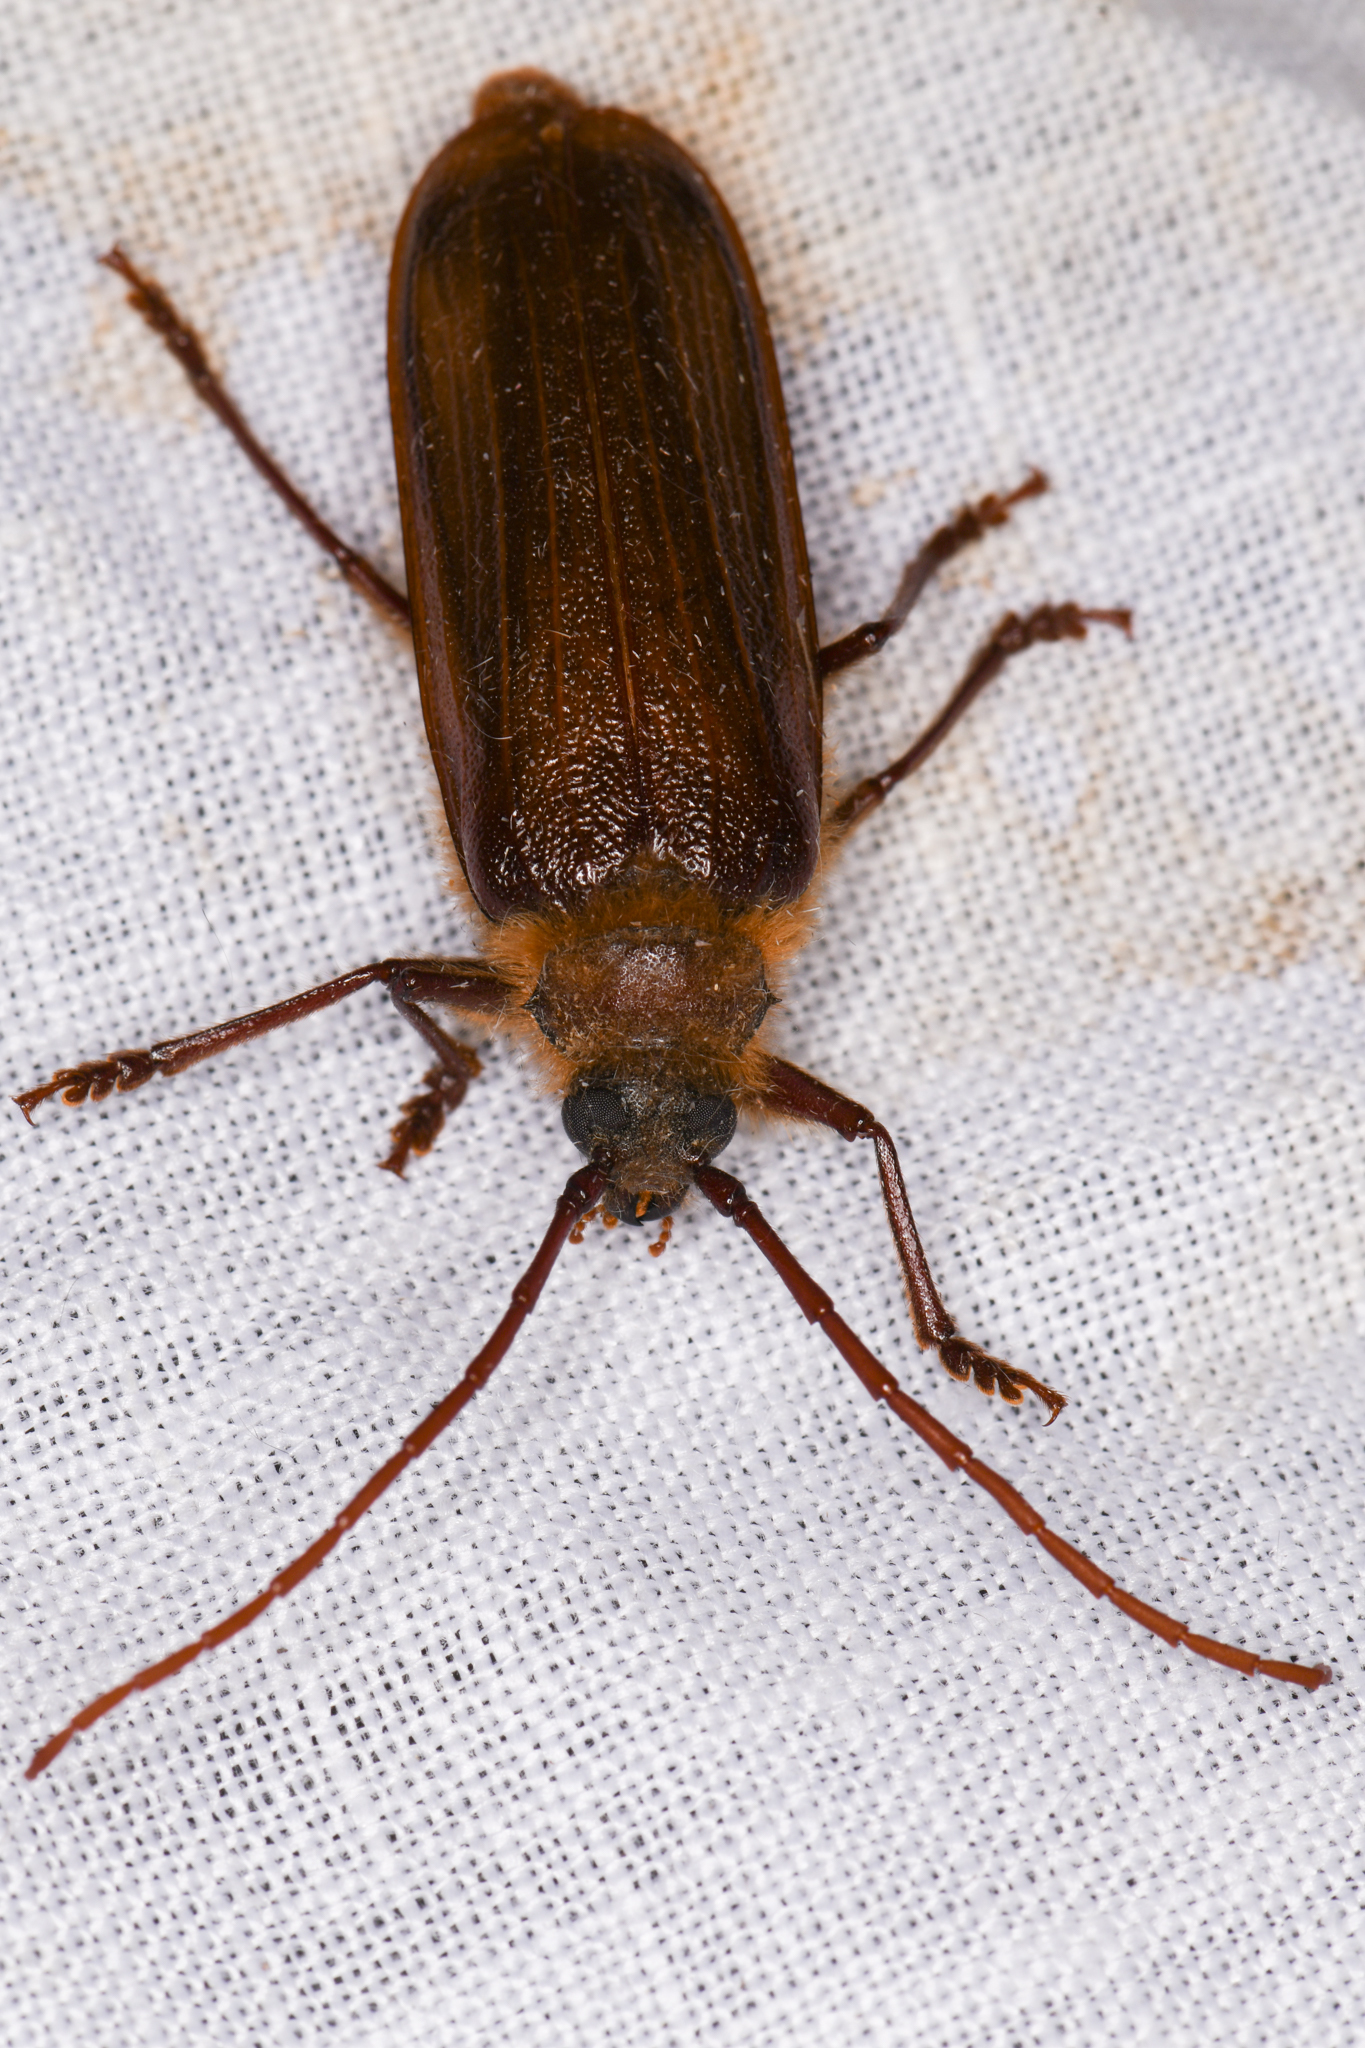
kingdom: Animalia
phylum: Arthropoda
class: Insecta
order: Coleoptera
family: Cerambycidae
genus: Tragosoma
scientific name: Tragosoma harrisii
